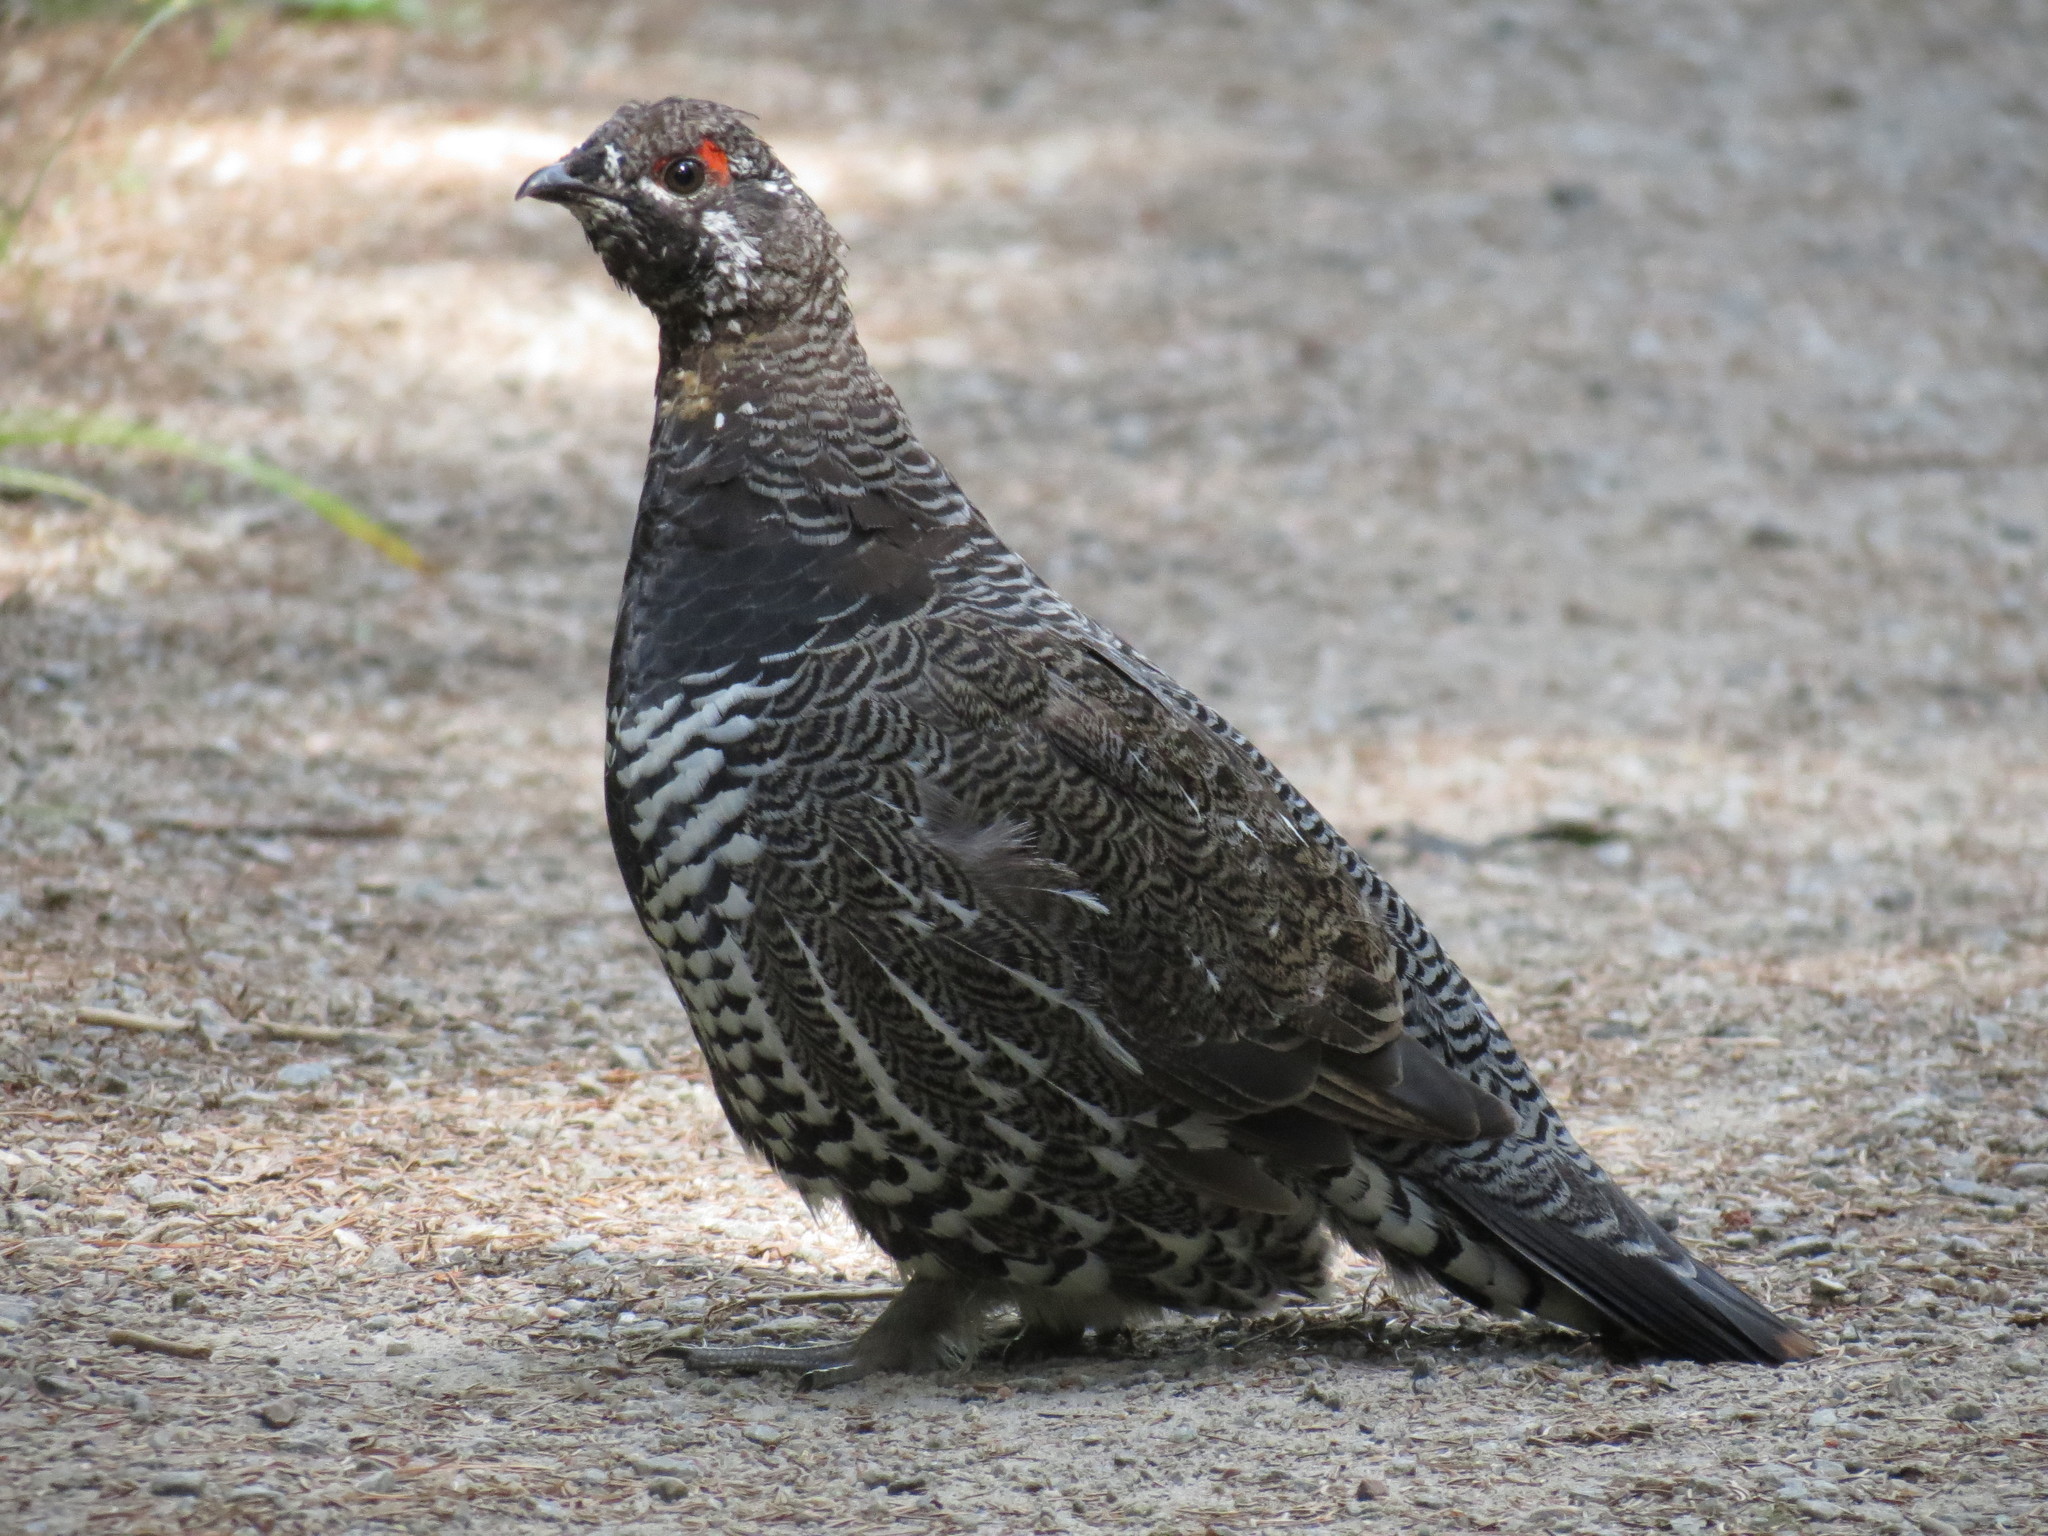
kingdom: Animalia
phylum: Chordata
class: Aves
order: Galliformes
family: Phasianidae
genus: Canachites
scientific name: Canachites canadensis
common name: Spruce grouse
